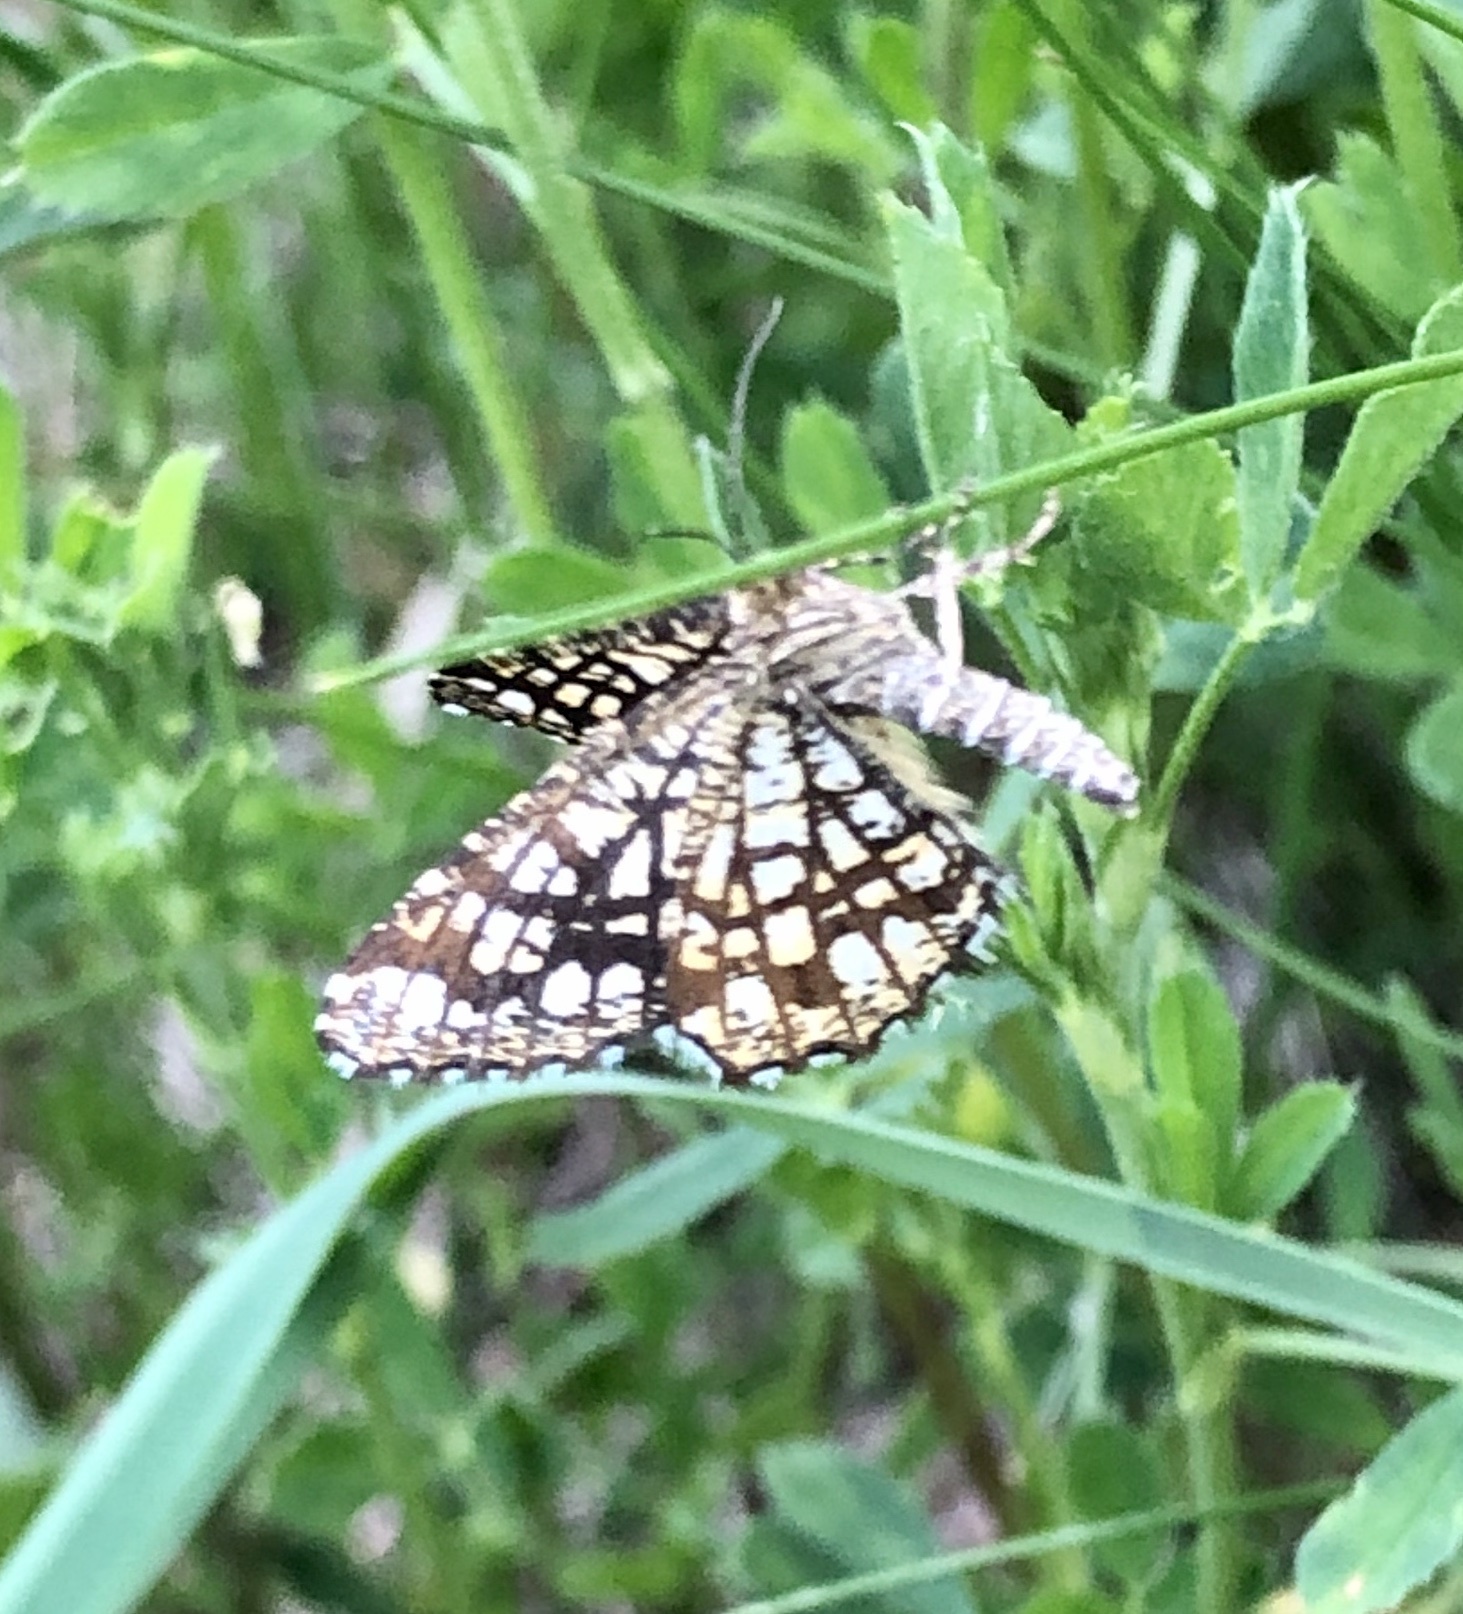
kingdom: Animalia
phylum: Arthropoda
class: Insecta
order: Lepidoptera
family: Geometridae
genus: Chiasmia
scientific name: Chiasmia clathrata
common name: Latticed heath
